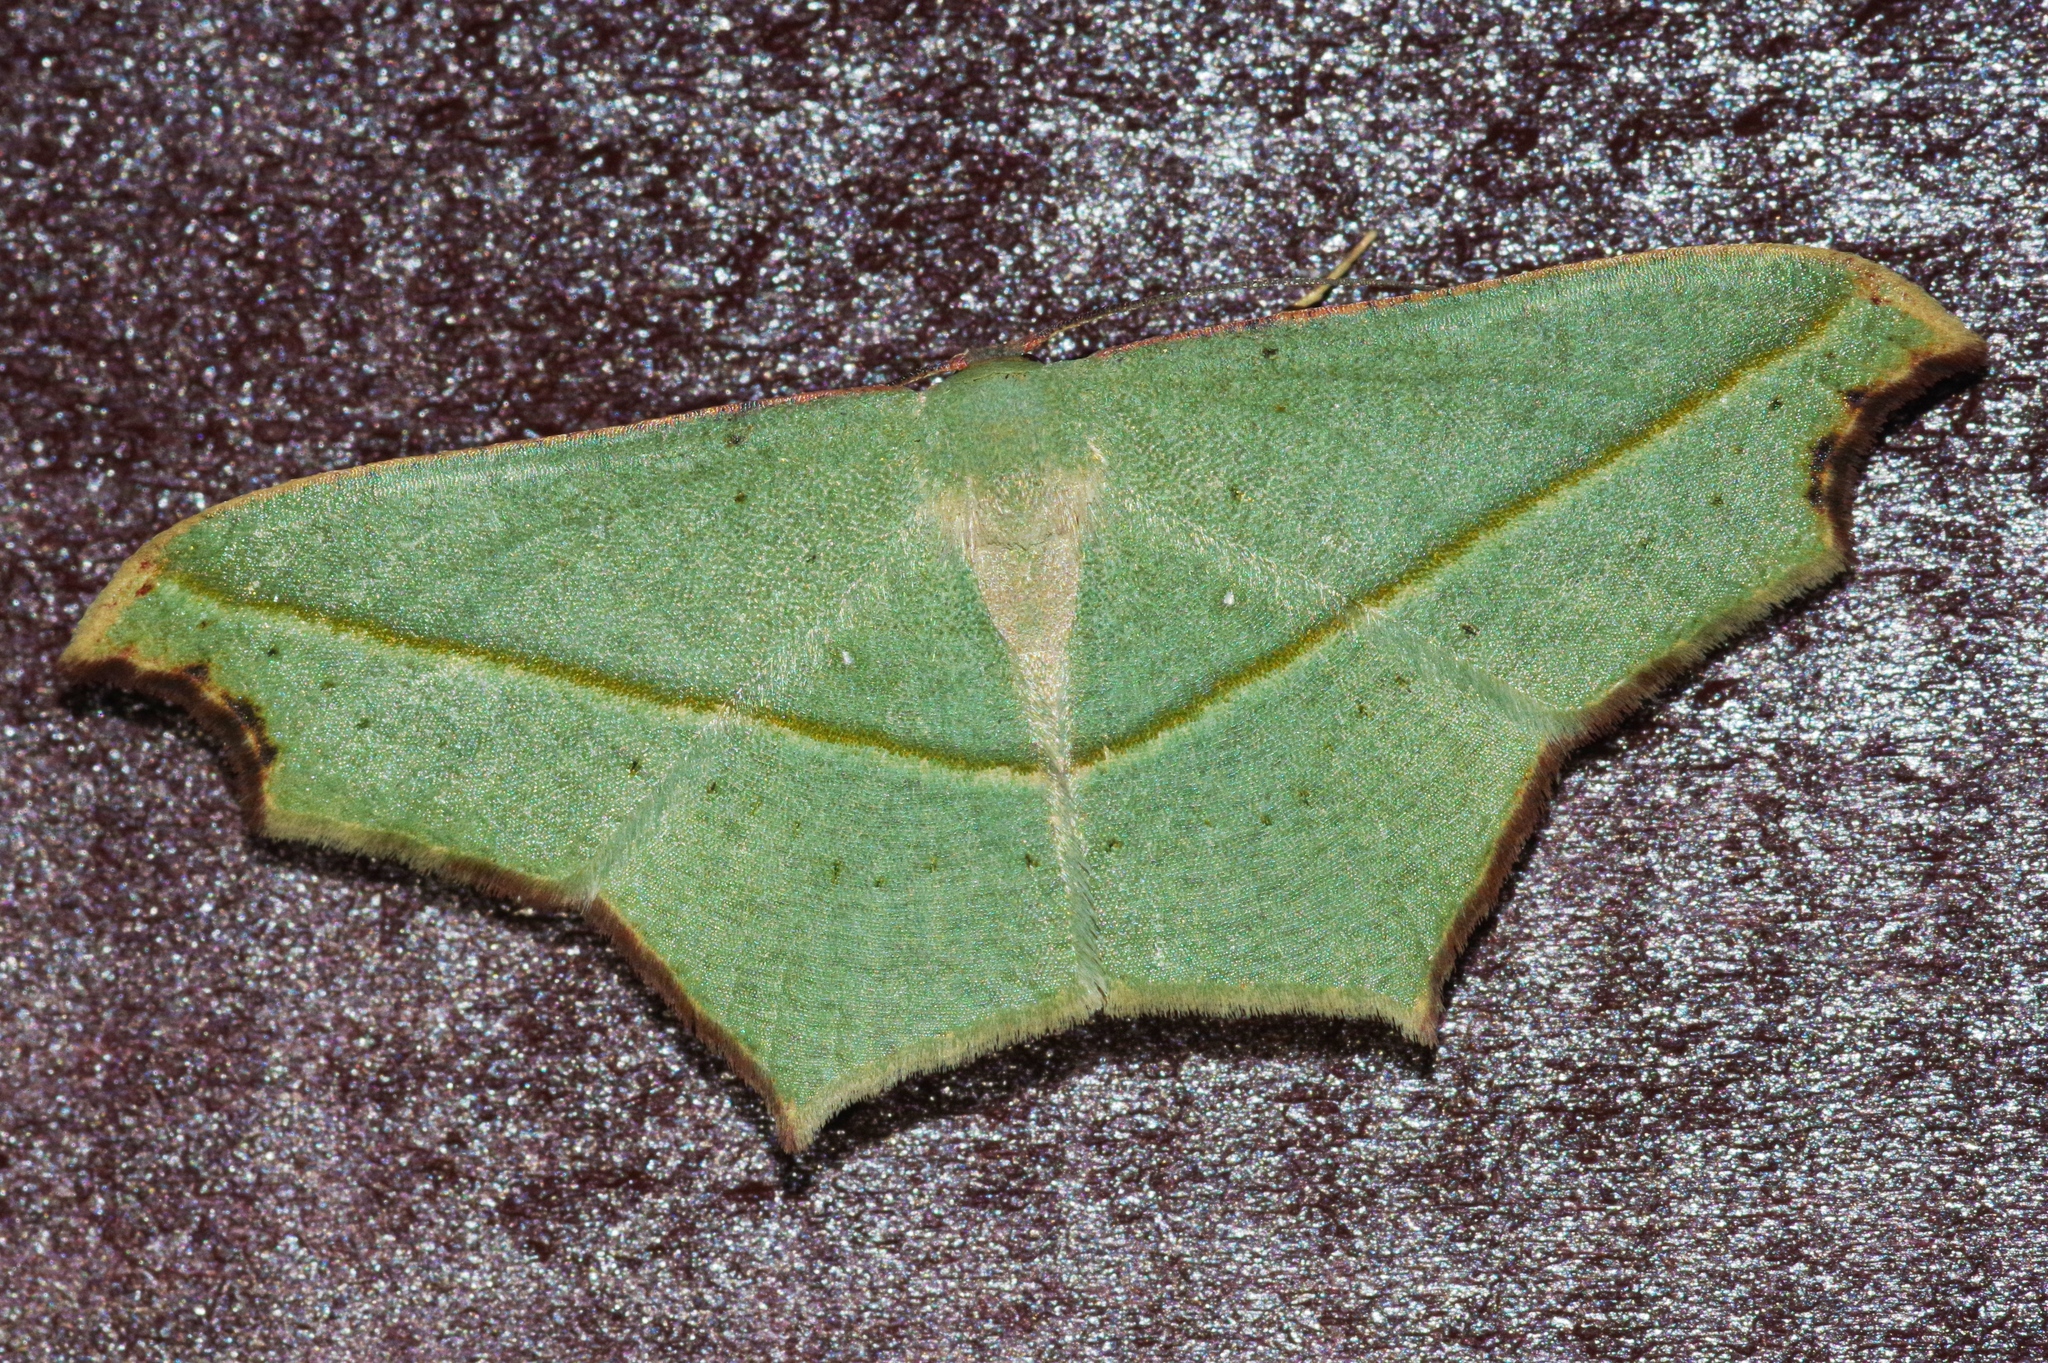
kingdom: Animalia
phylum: Arthropoda
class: Insecta
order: Lepidoptera
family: Geometridae
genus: Traminda
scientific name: Traminda aventiaria
